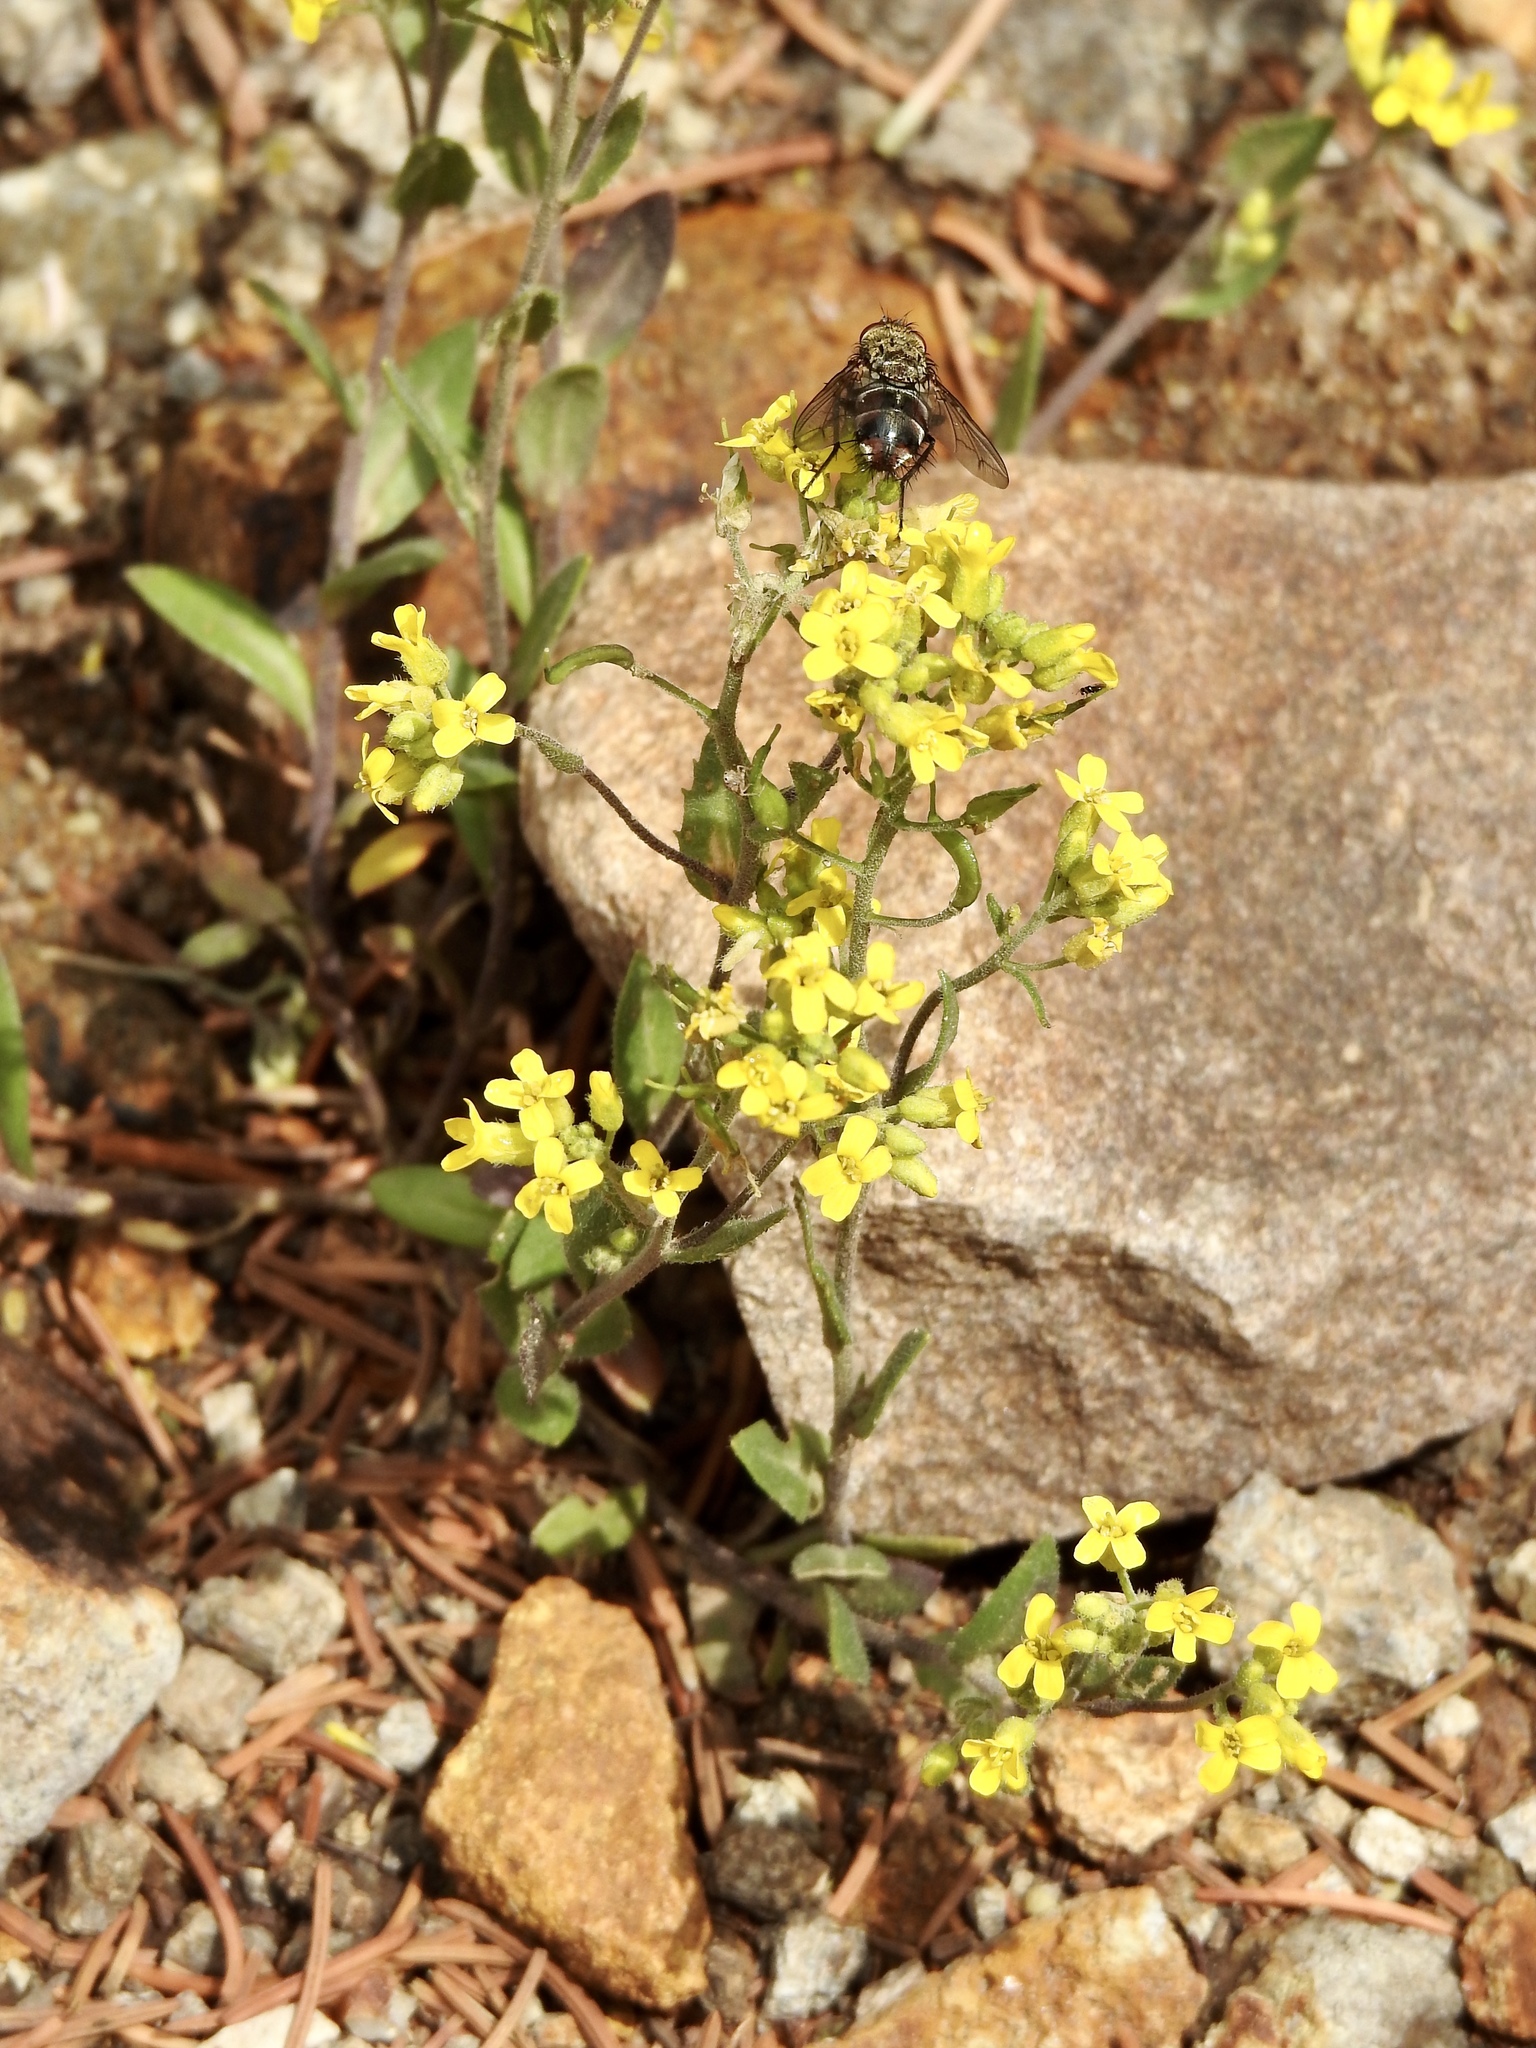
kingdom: Plantae
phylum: Tracheophyta
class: Magnoliopsida
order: Brassicales
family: Brassicaceae
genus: Draba
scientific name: Draba helleriana
